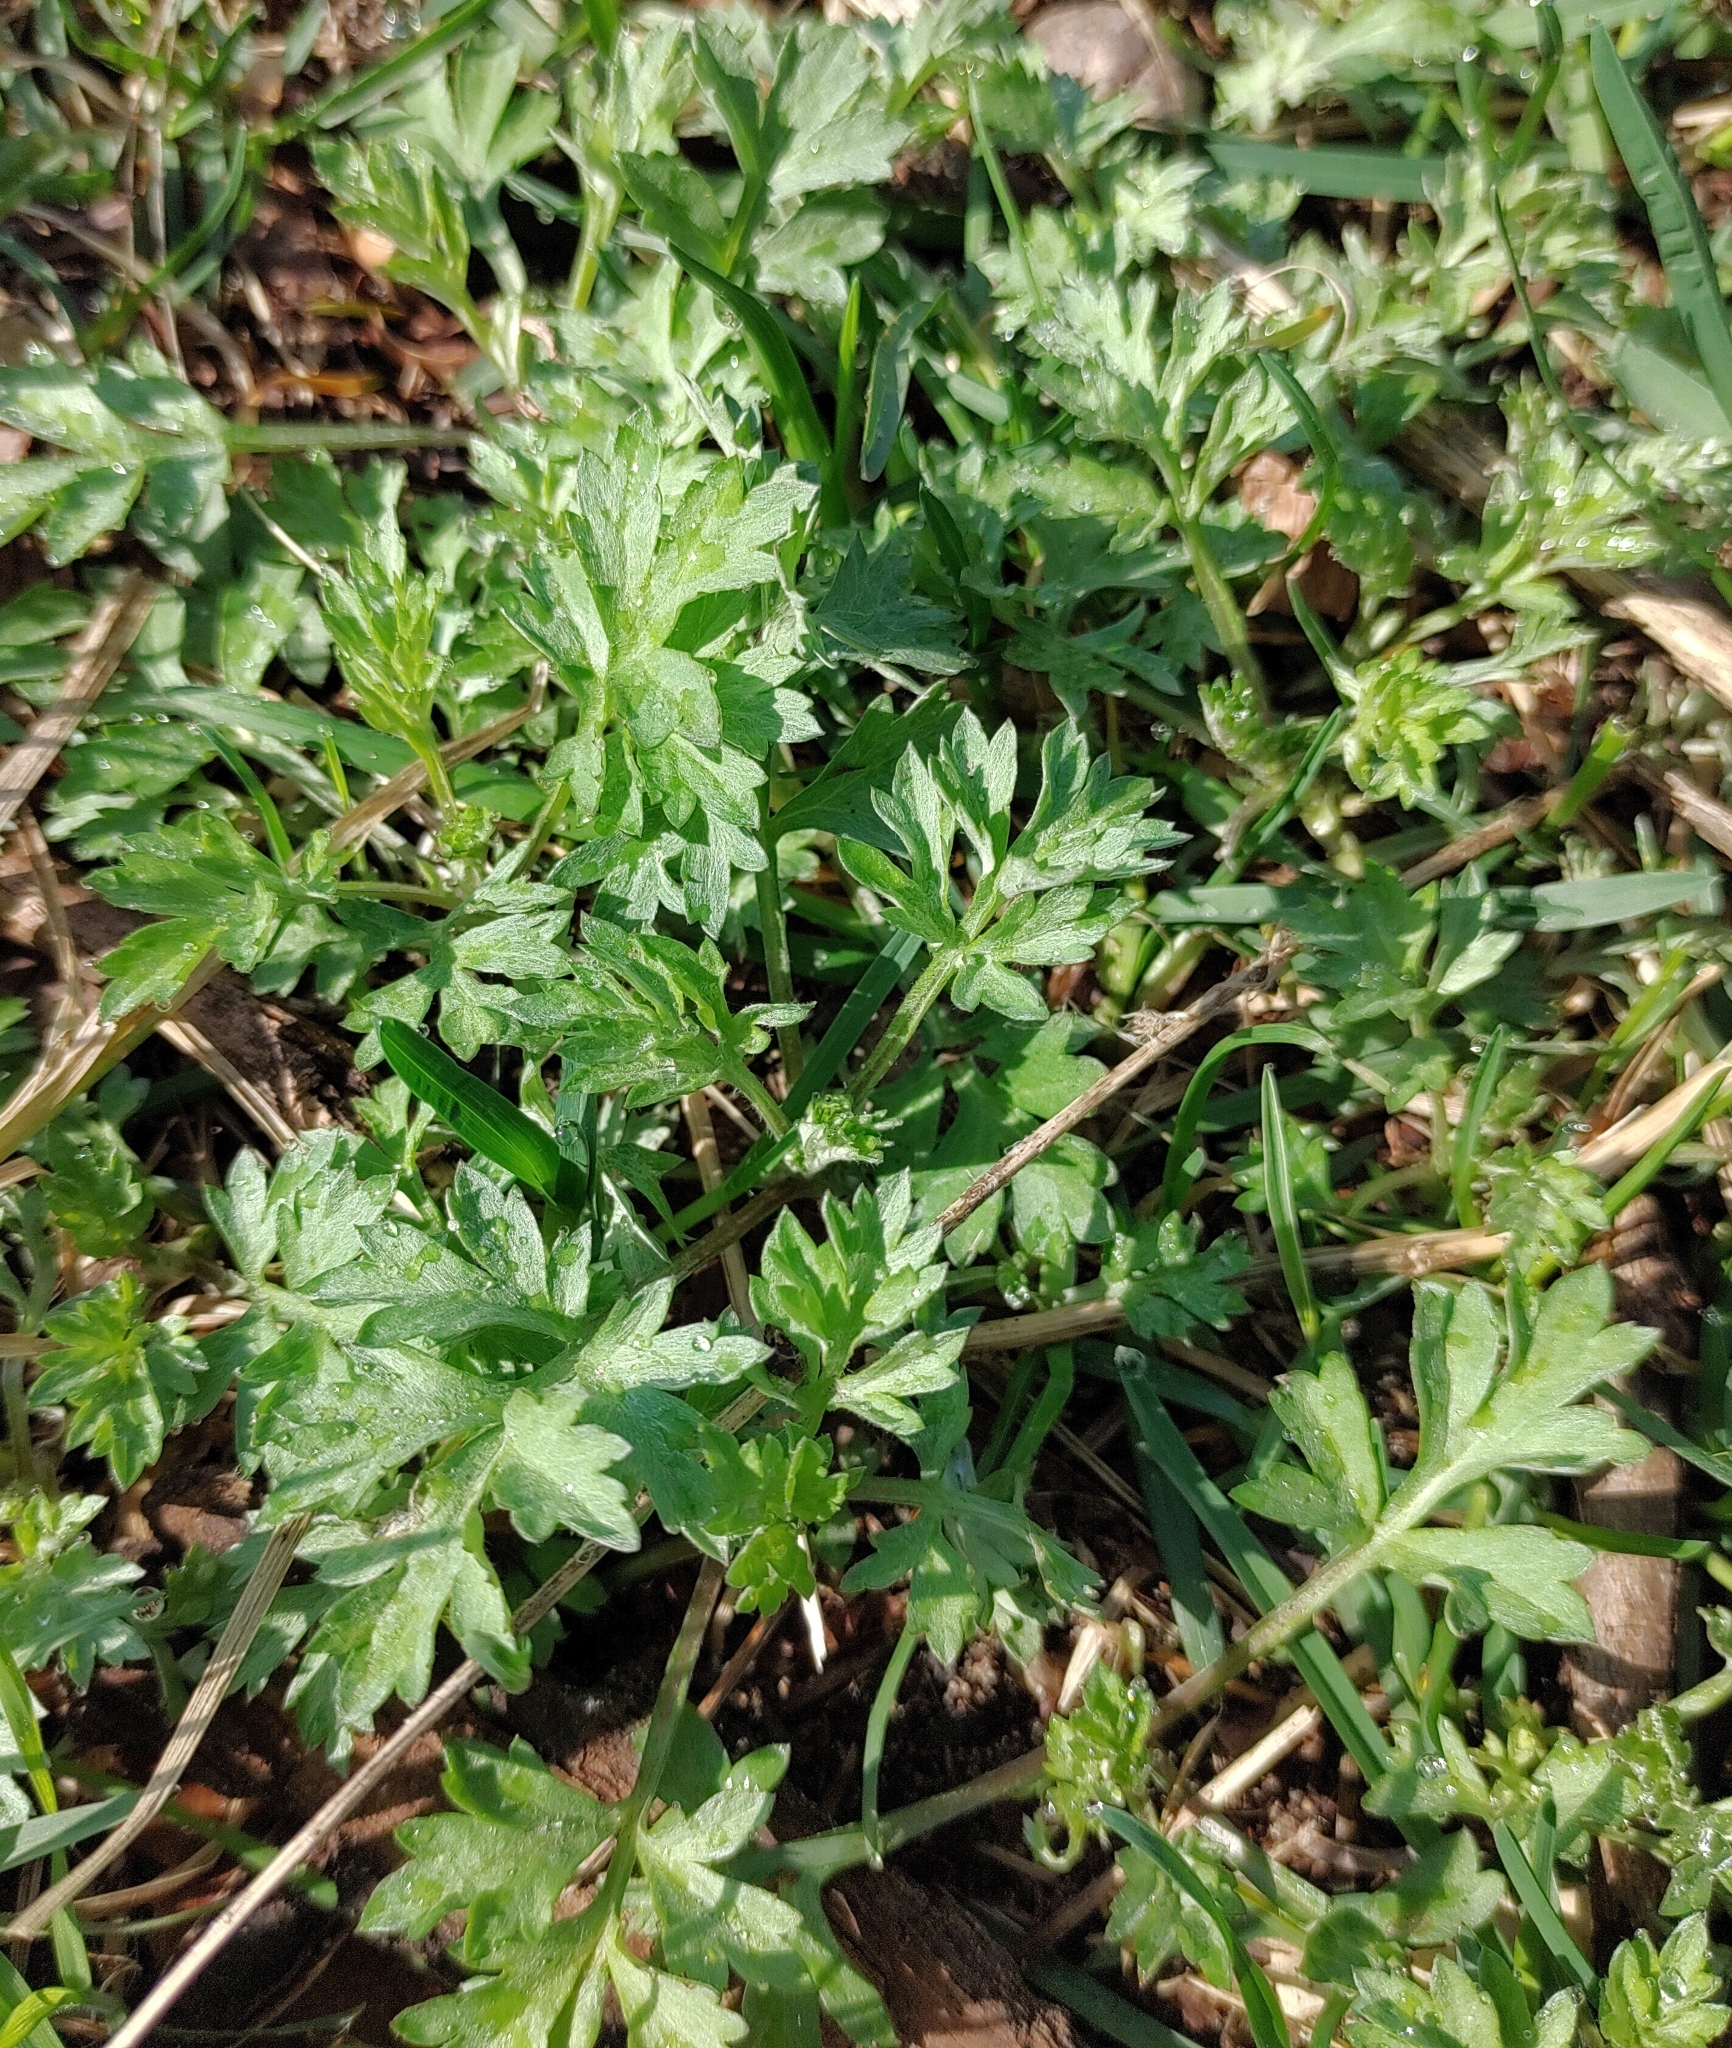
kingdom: Plantae
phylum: Tracheophyta
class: Magnoliopsida
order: Asterales
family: Asteraceae
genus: Artemisia
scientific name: Artemisia vulgaris
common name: Mugwort
